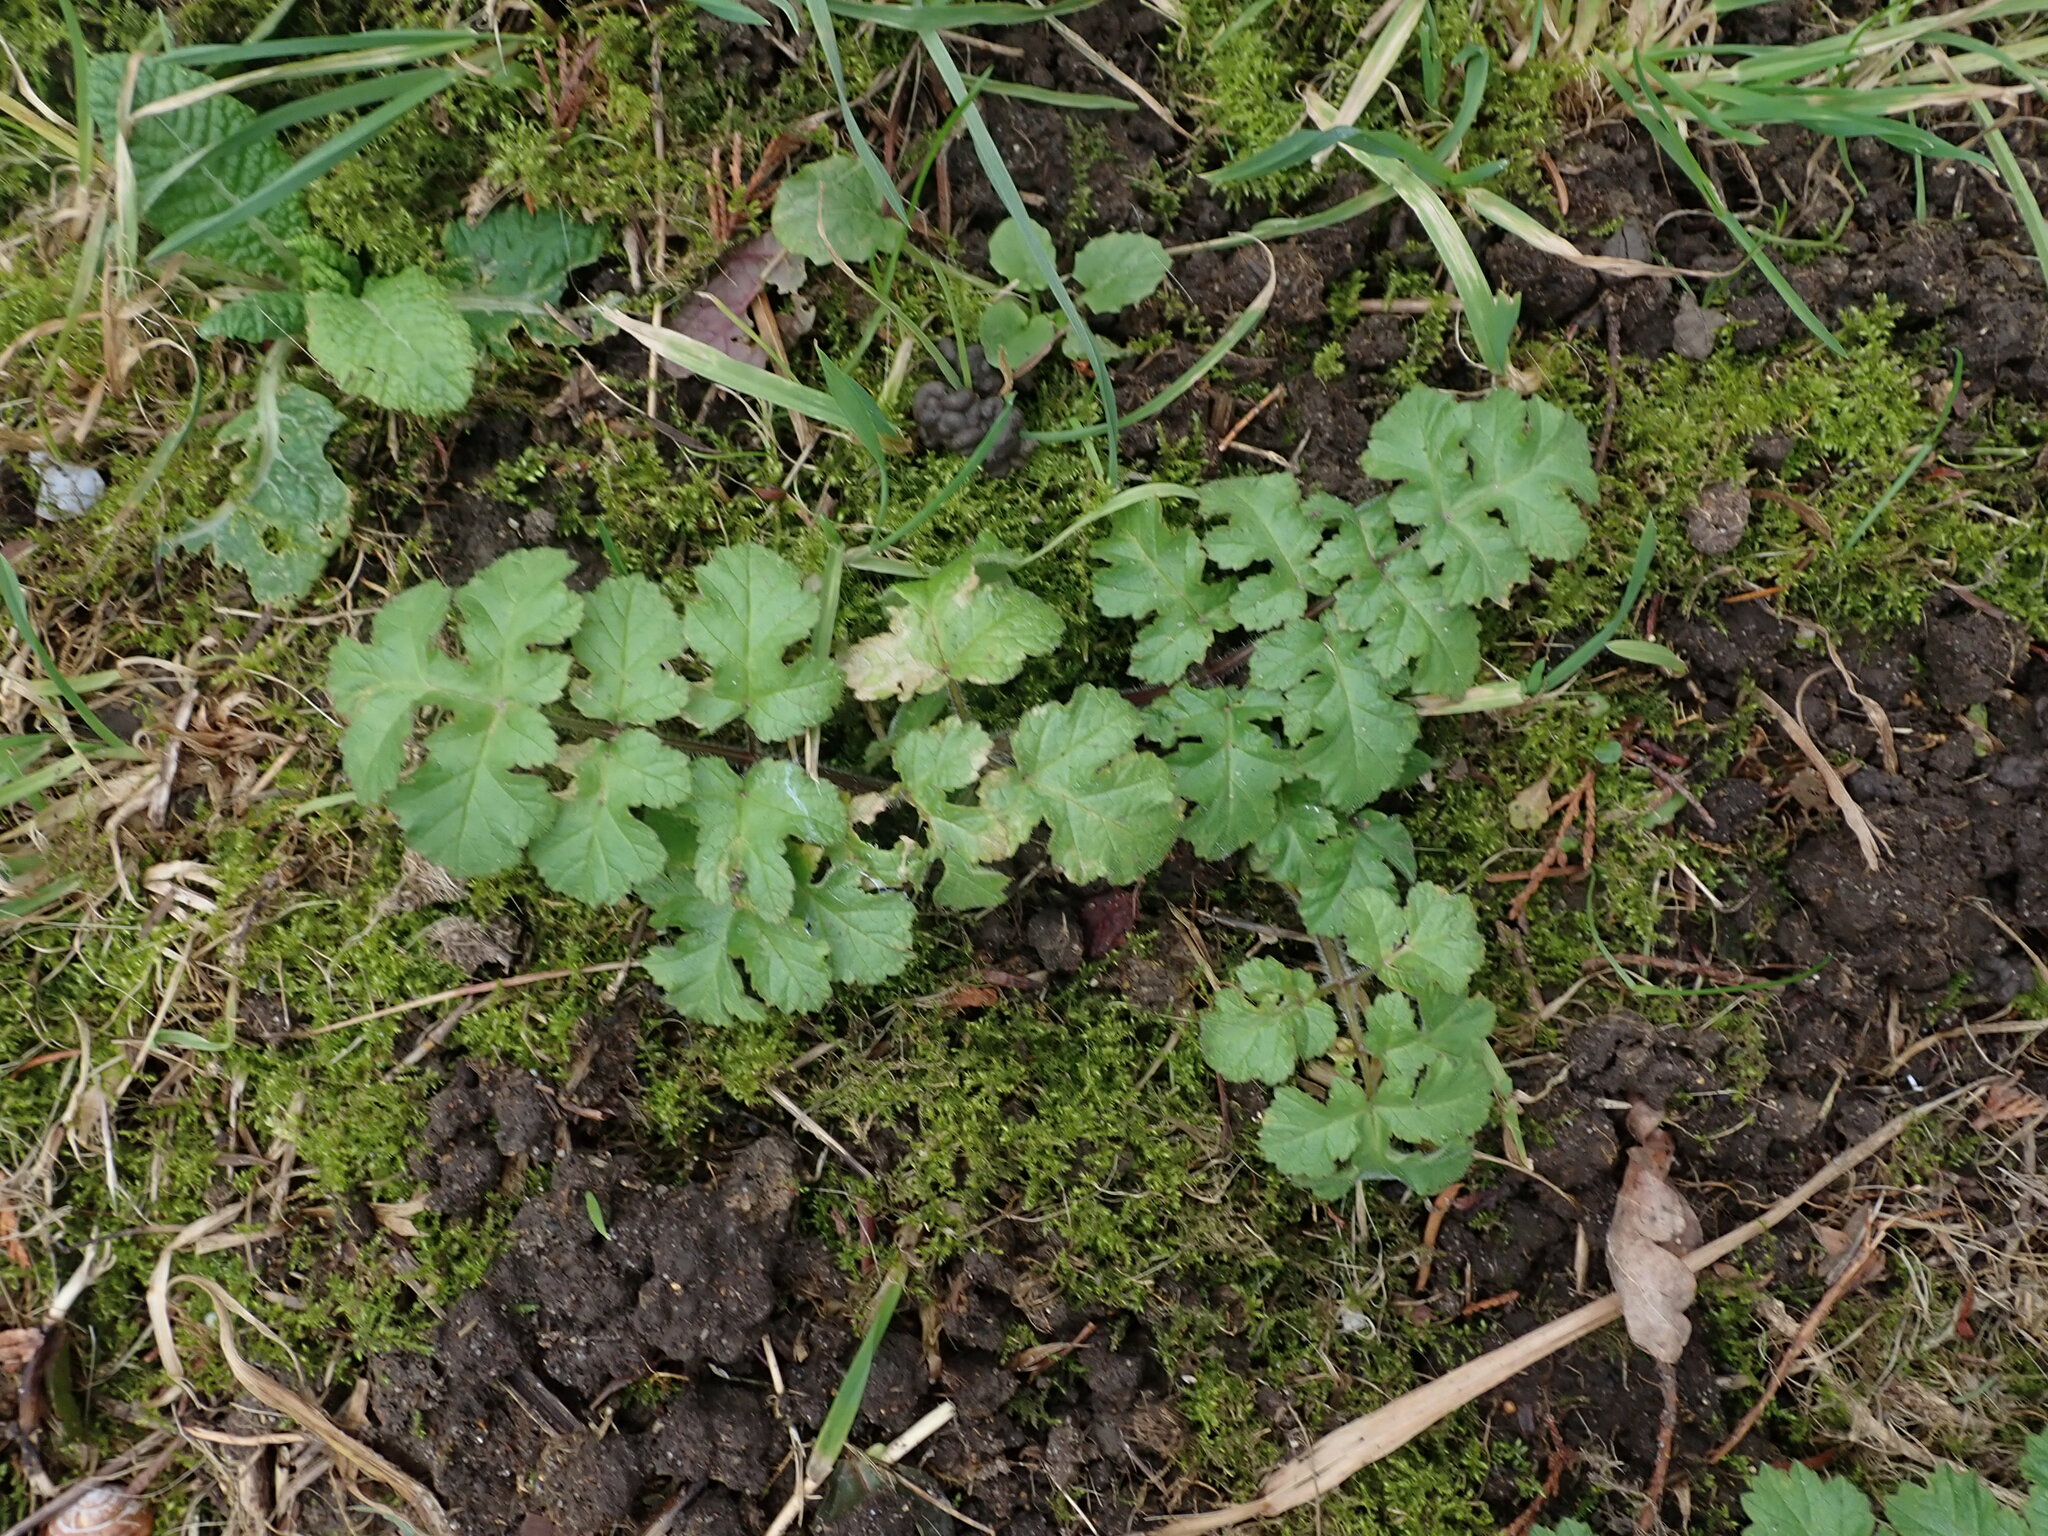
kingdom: Plantae
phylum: Tracheophyta
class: Magnoliopsida
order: Apiales
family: Apiaceae
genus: Heracleum
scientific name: Heracleum sphondylium
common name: Hogweed
